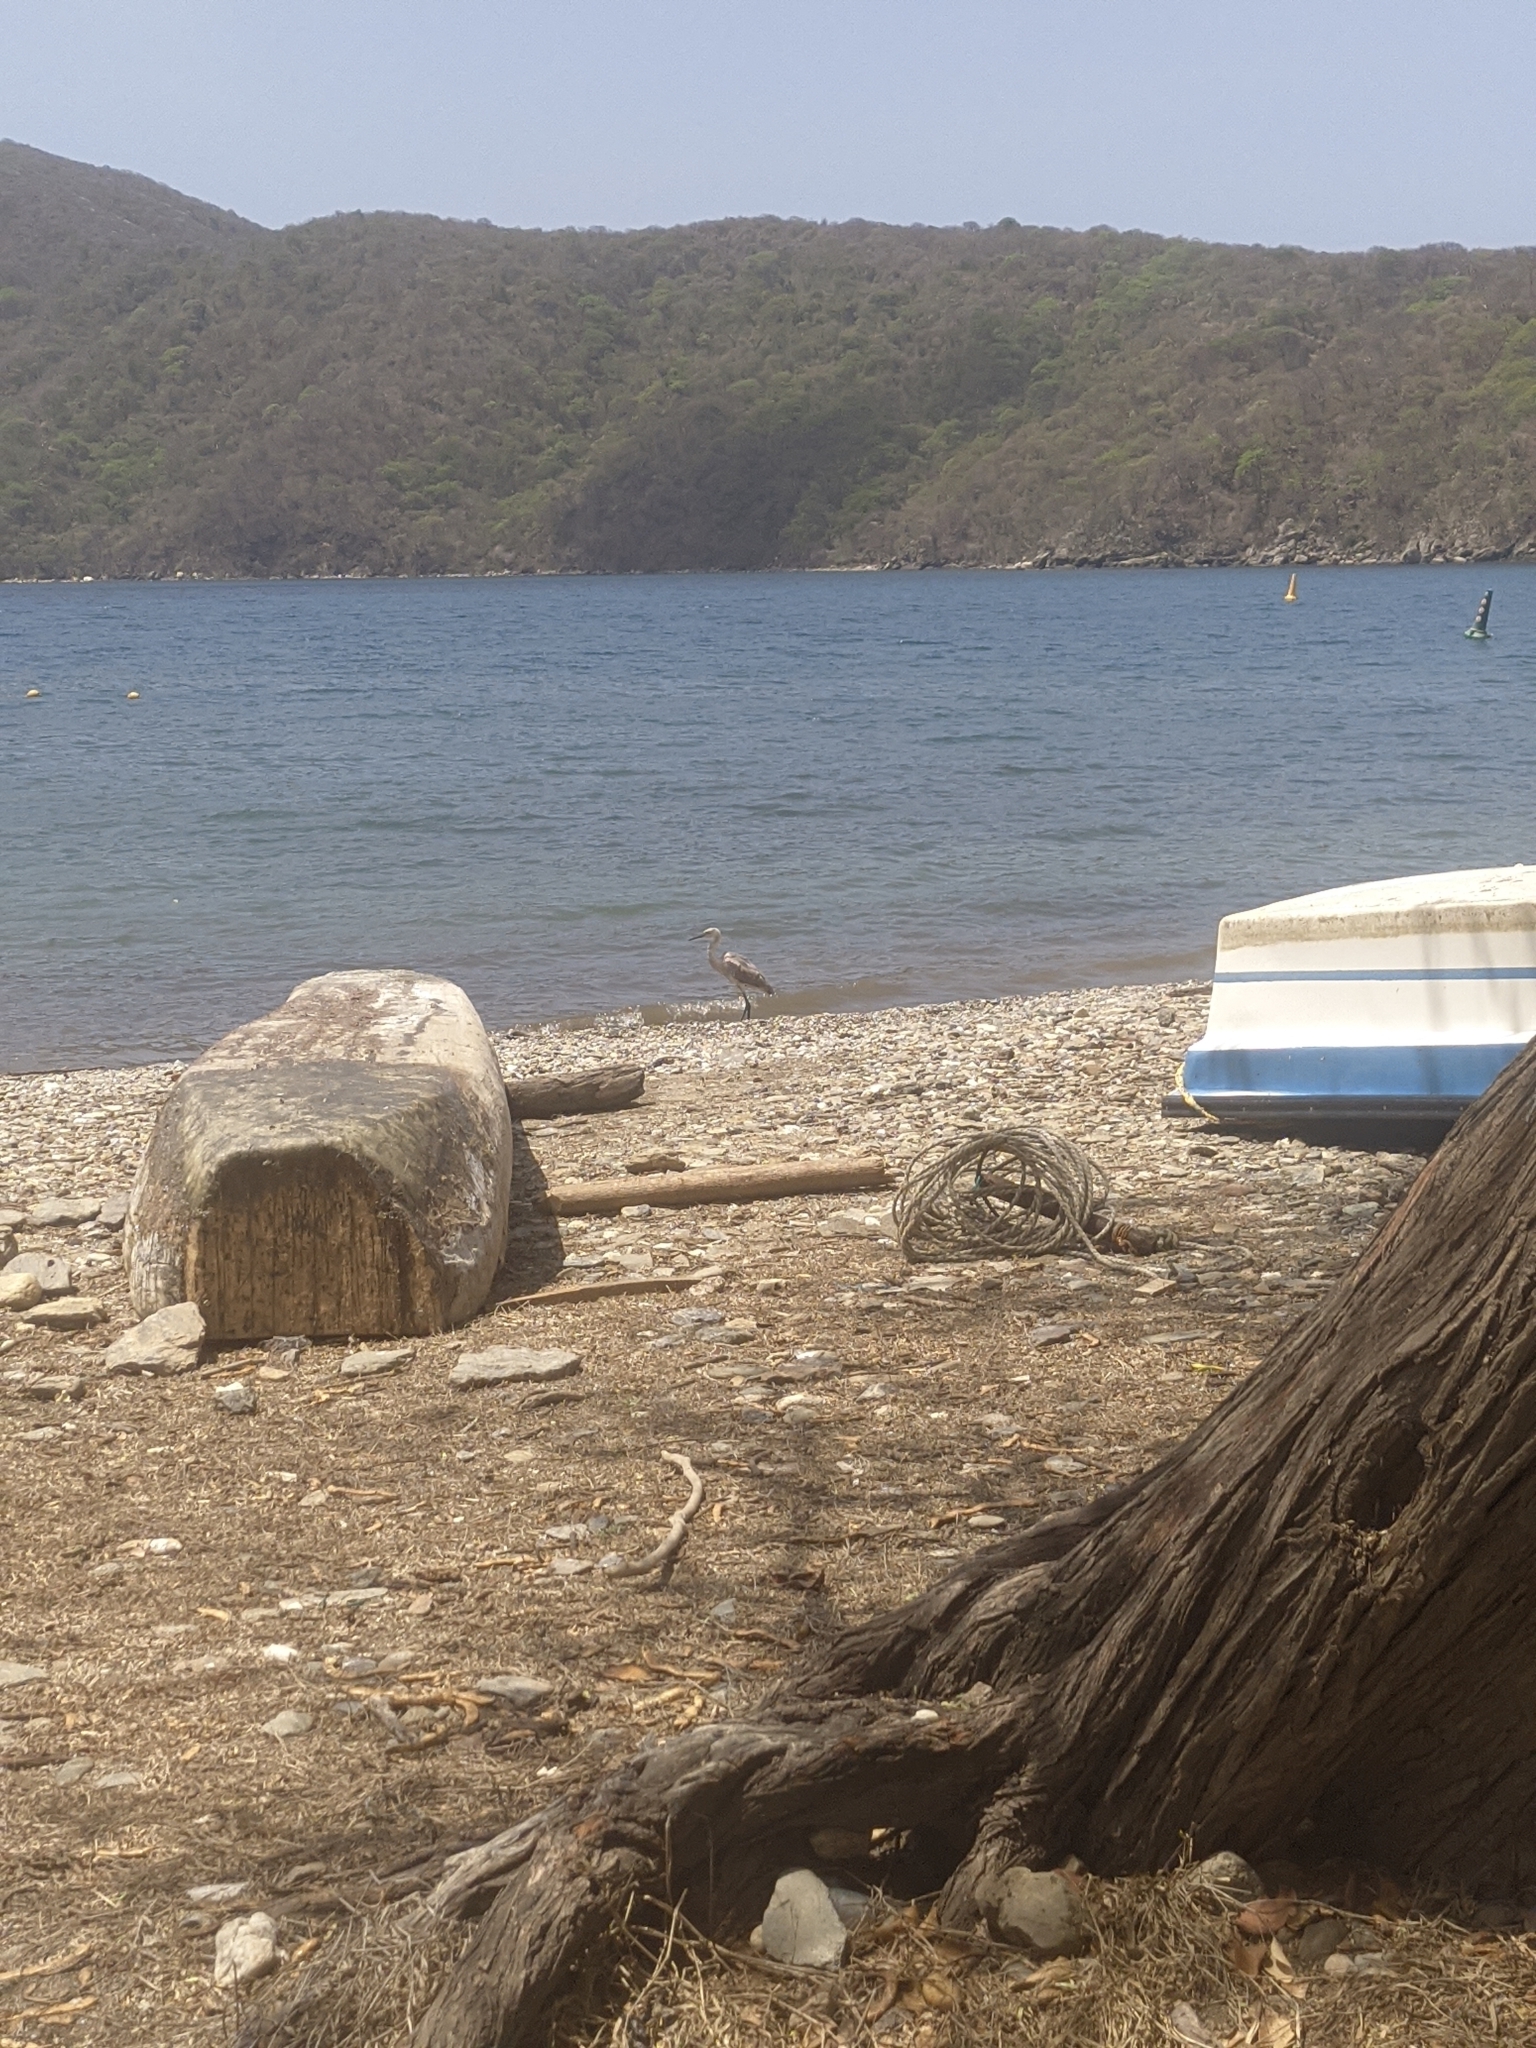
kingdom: Animalia
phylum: Chordata
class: Aves
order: Pelecaniformes
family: Ardeidae
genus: Egretta
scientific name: Egretta rufescens
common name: Reddish egret
